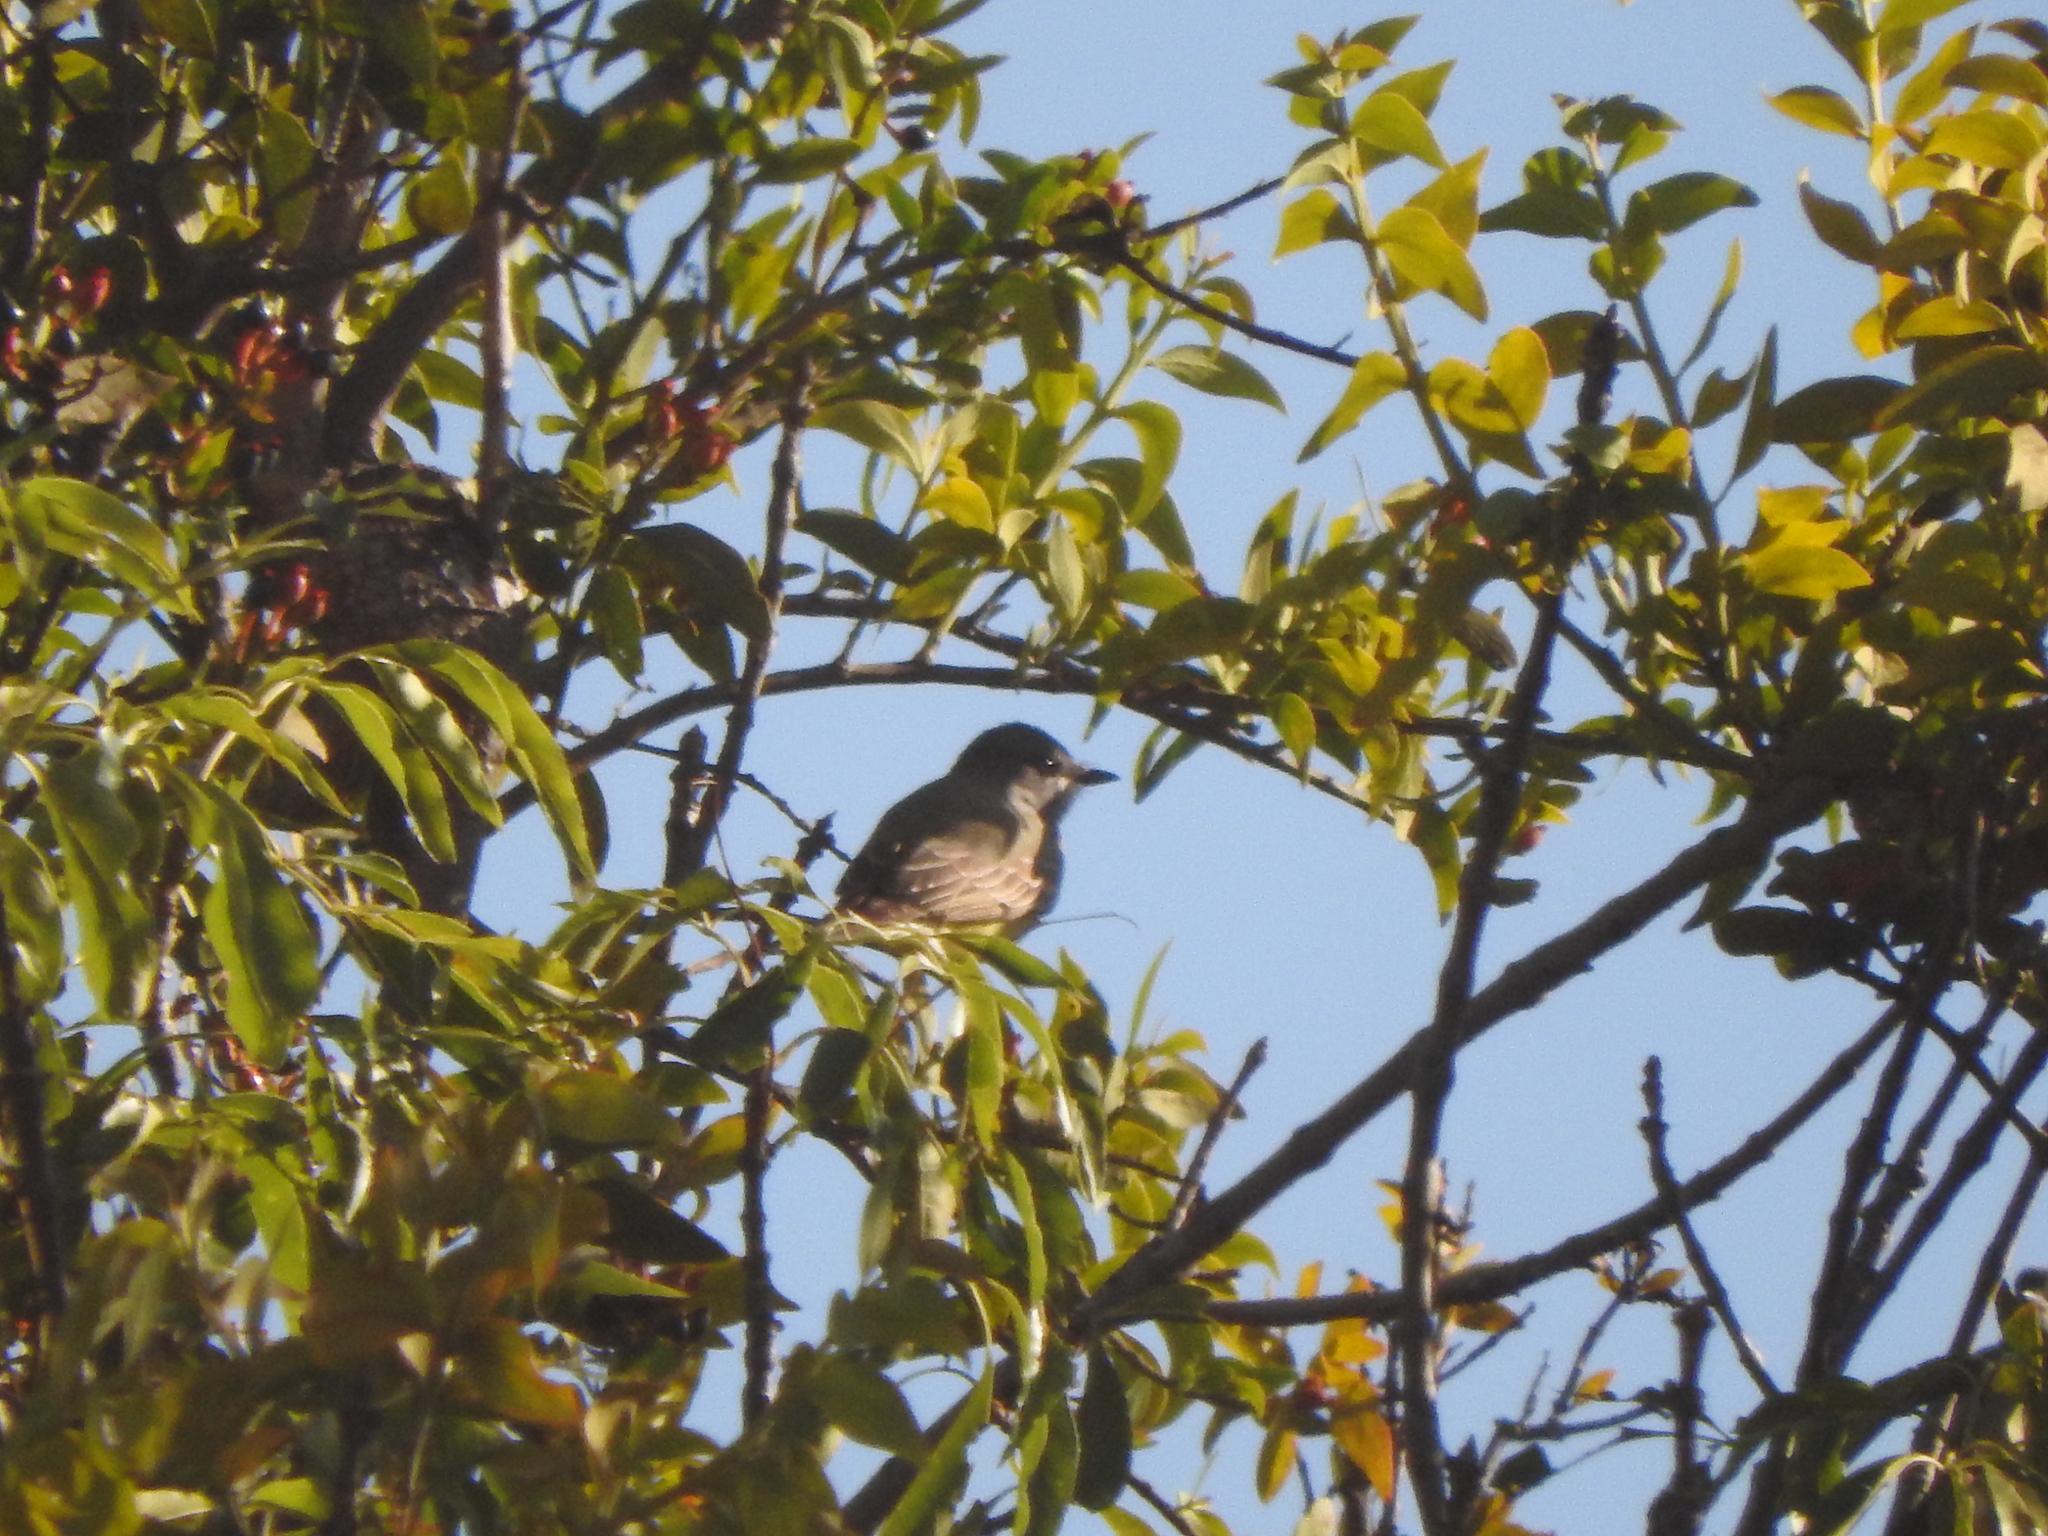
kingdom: Animalia
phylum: Chordata
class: Aves
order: Passeriformes
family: Tyrannidae
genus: Tyrannus
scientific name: Tyrannus vociferans
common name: Cassin's kingbird
